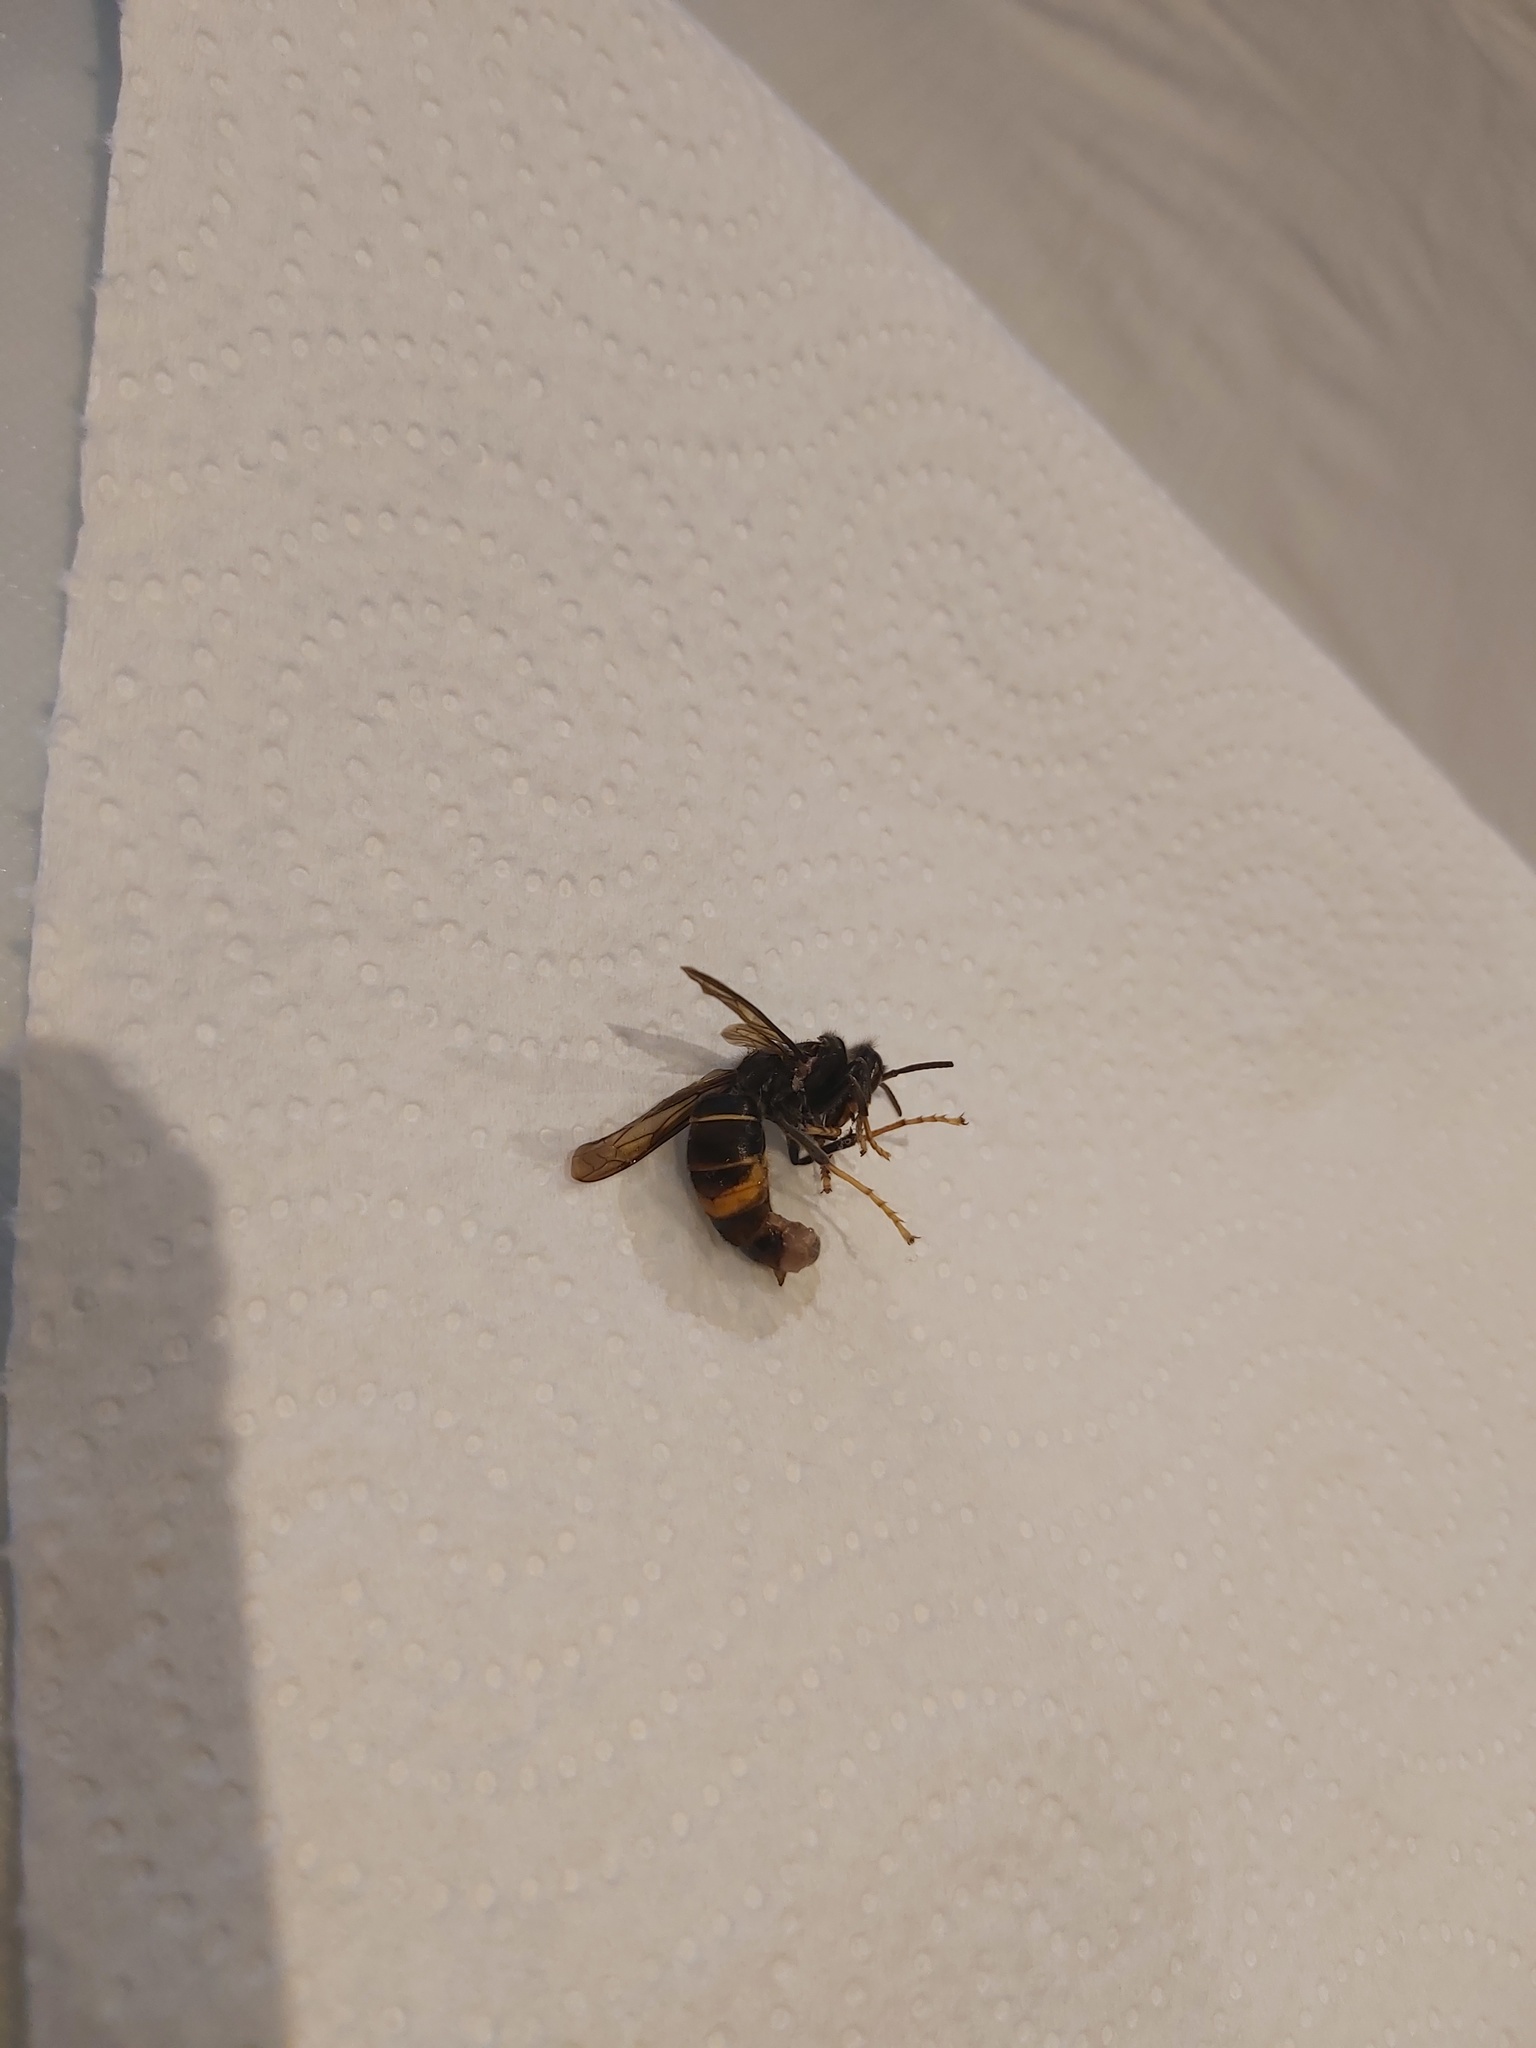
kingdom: Animalia
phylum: Arthropoda
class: Insecta
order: Hymenoptera
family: Vespidae
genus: Vespa
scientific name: Vespa velutina
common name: Asian hornet
